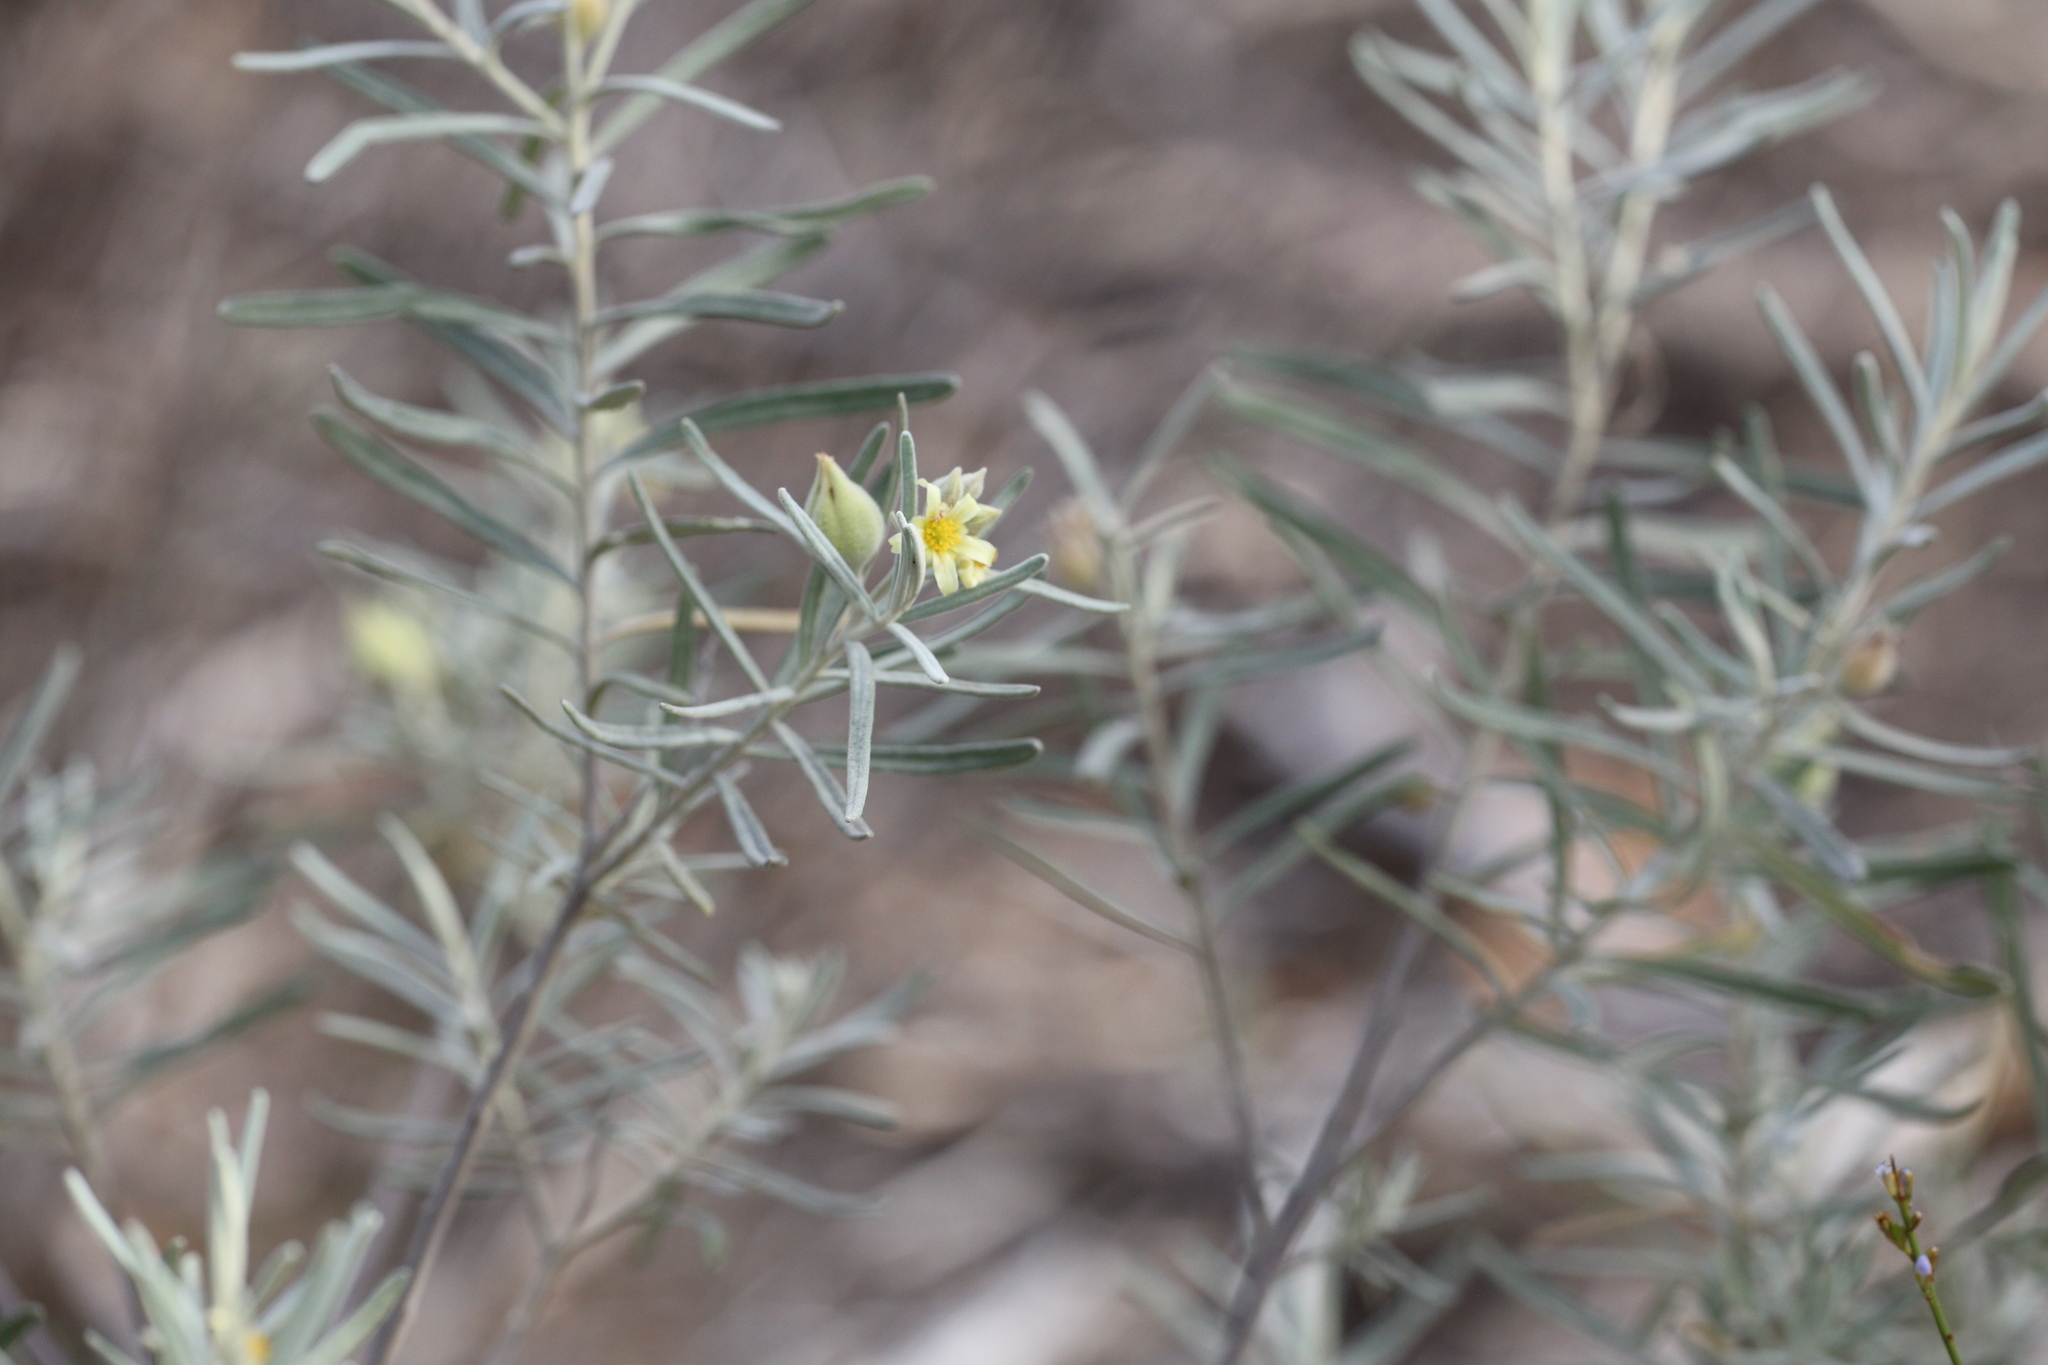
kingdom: Plantae
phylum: Tracheophyta
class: Magnoliopsida
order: Malpighiales
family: Euphorbiaceae
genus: Ricinocarpos
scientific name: Ricinocarpos velutinus
